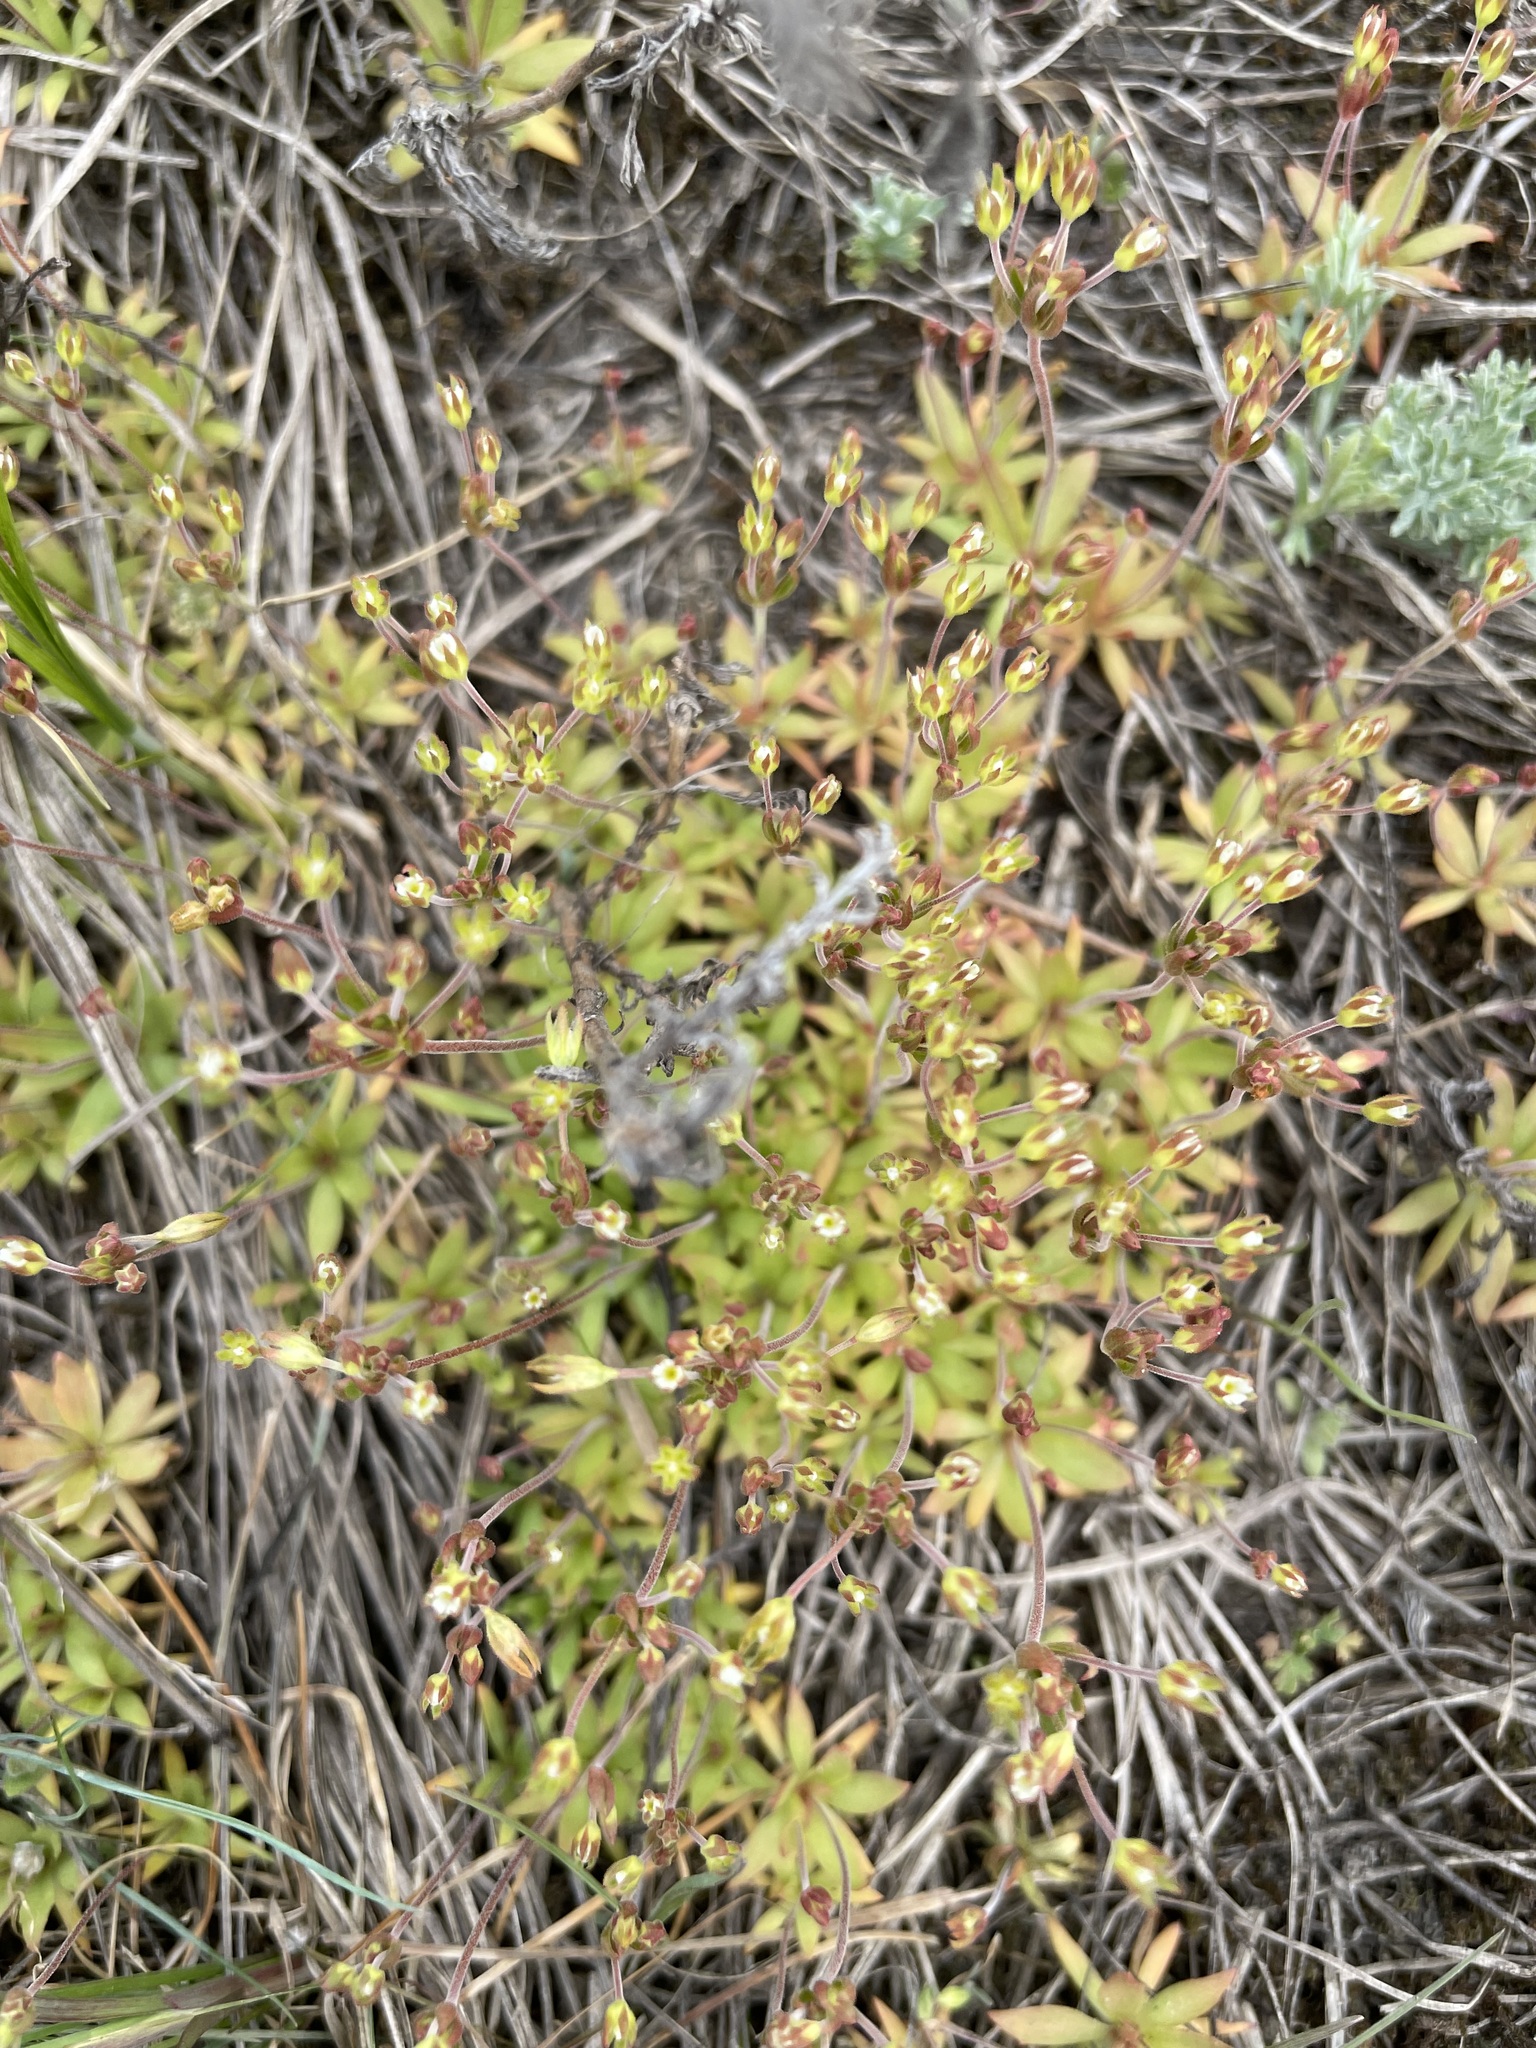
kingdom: Plantae
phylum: Tracheophyta
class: Magnoliopsida
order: Ericales
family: Primulaceae
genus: Androsace
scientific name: Androsace elongata
